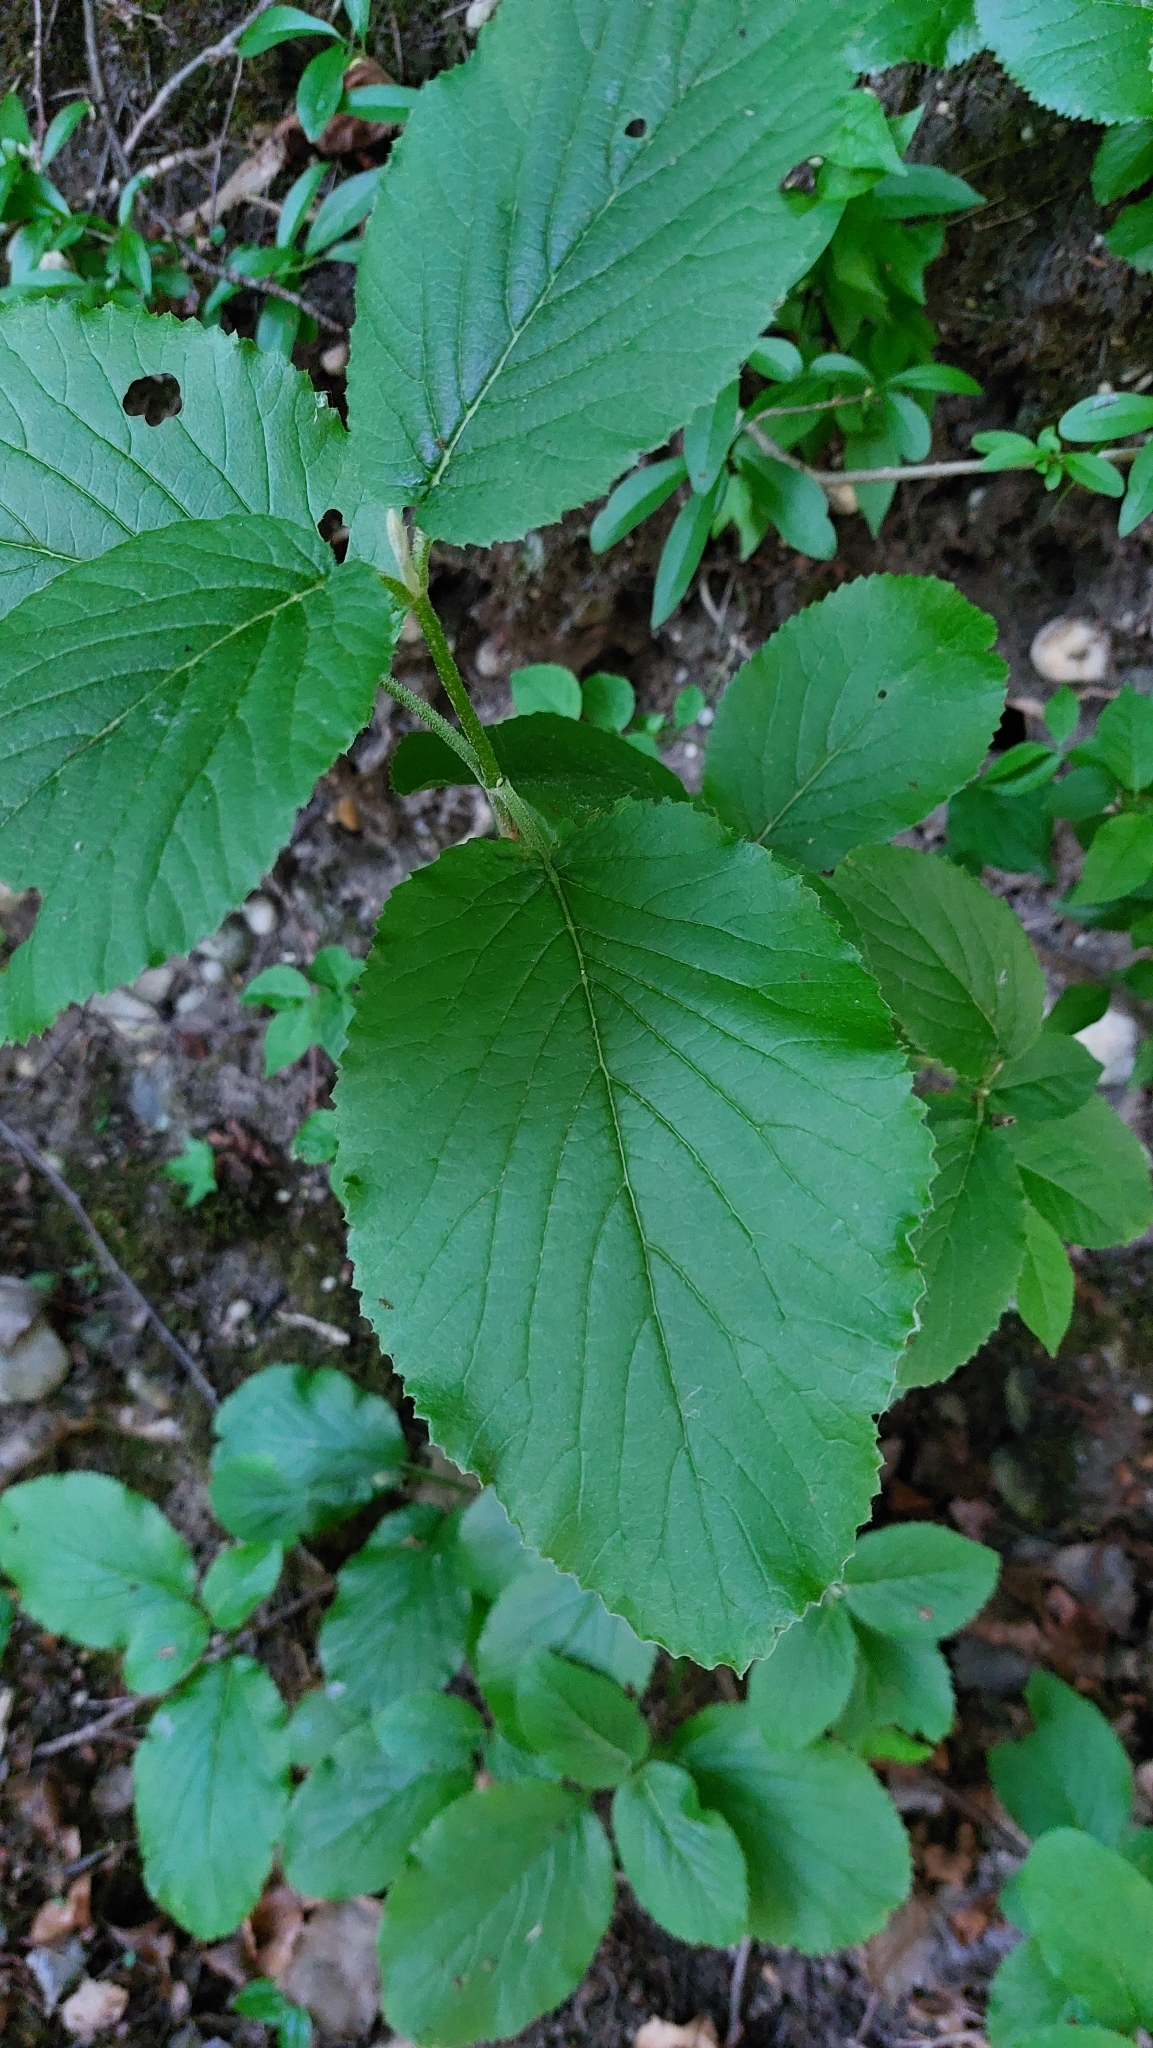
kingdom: Plantae
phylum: Tracheophyta
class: Magnoliopsida
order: Dipsacales
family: Viburnaceae
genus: Viburnum
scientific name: Viburnum lantana
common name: Wayfaring tree
